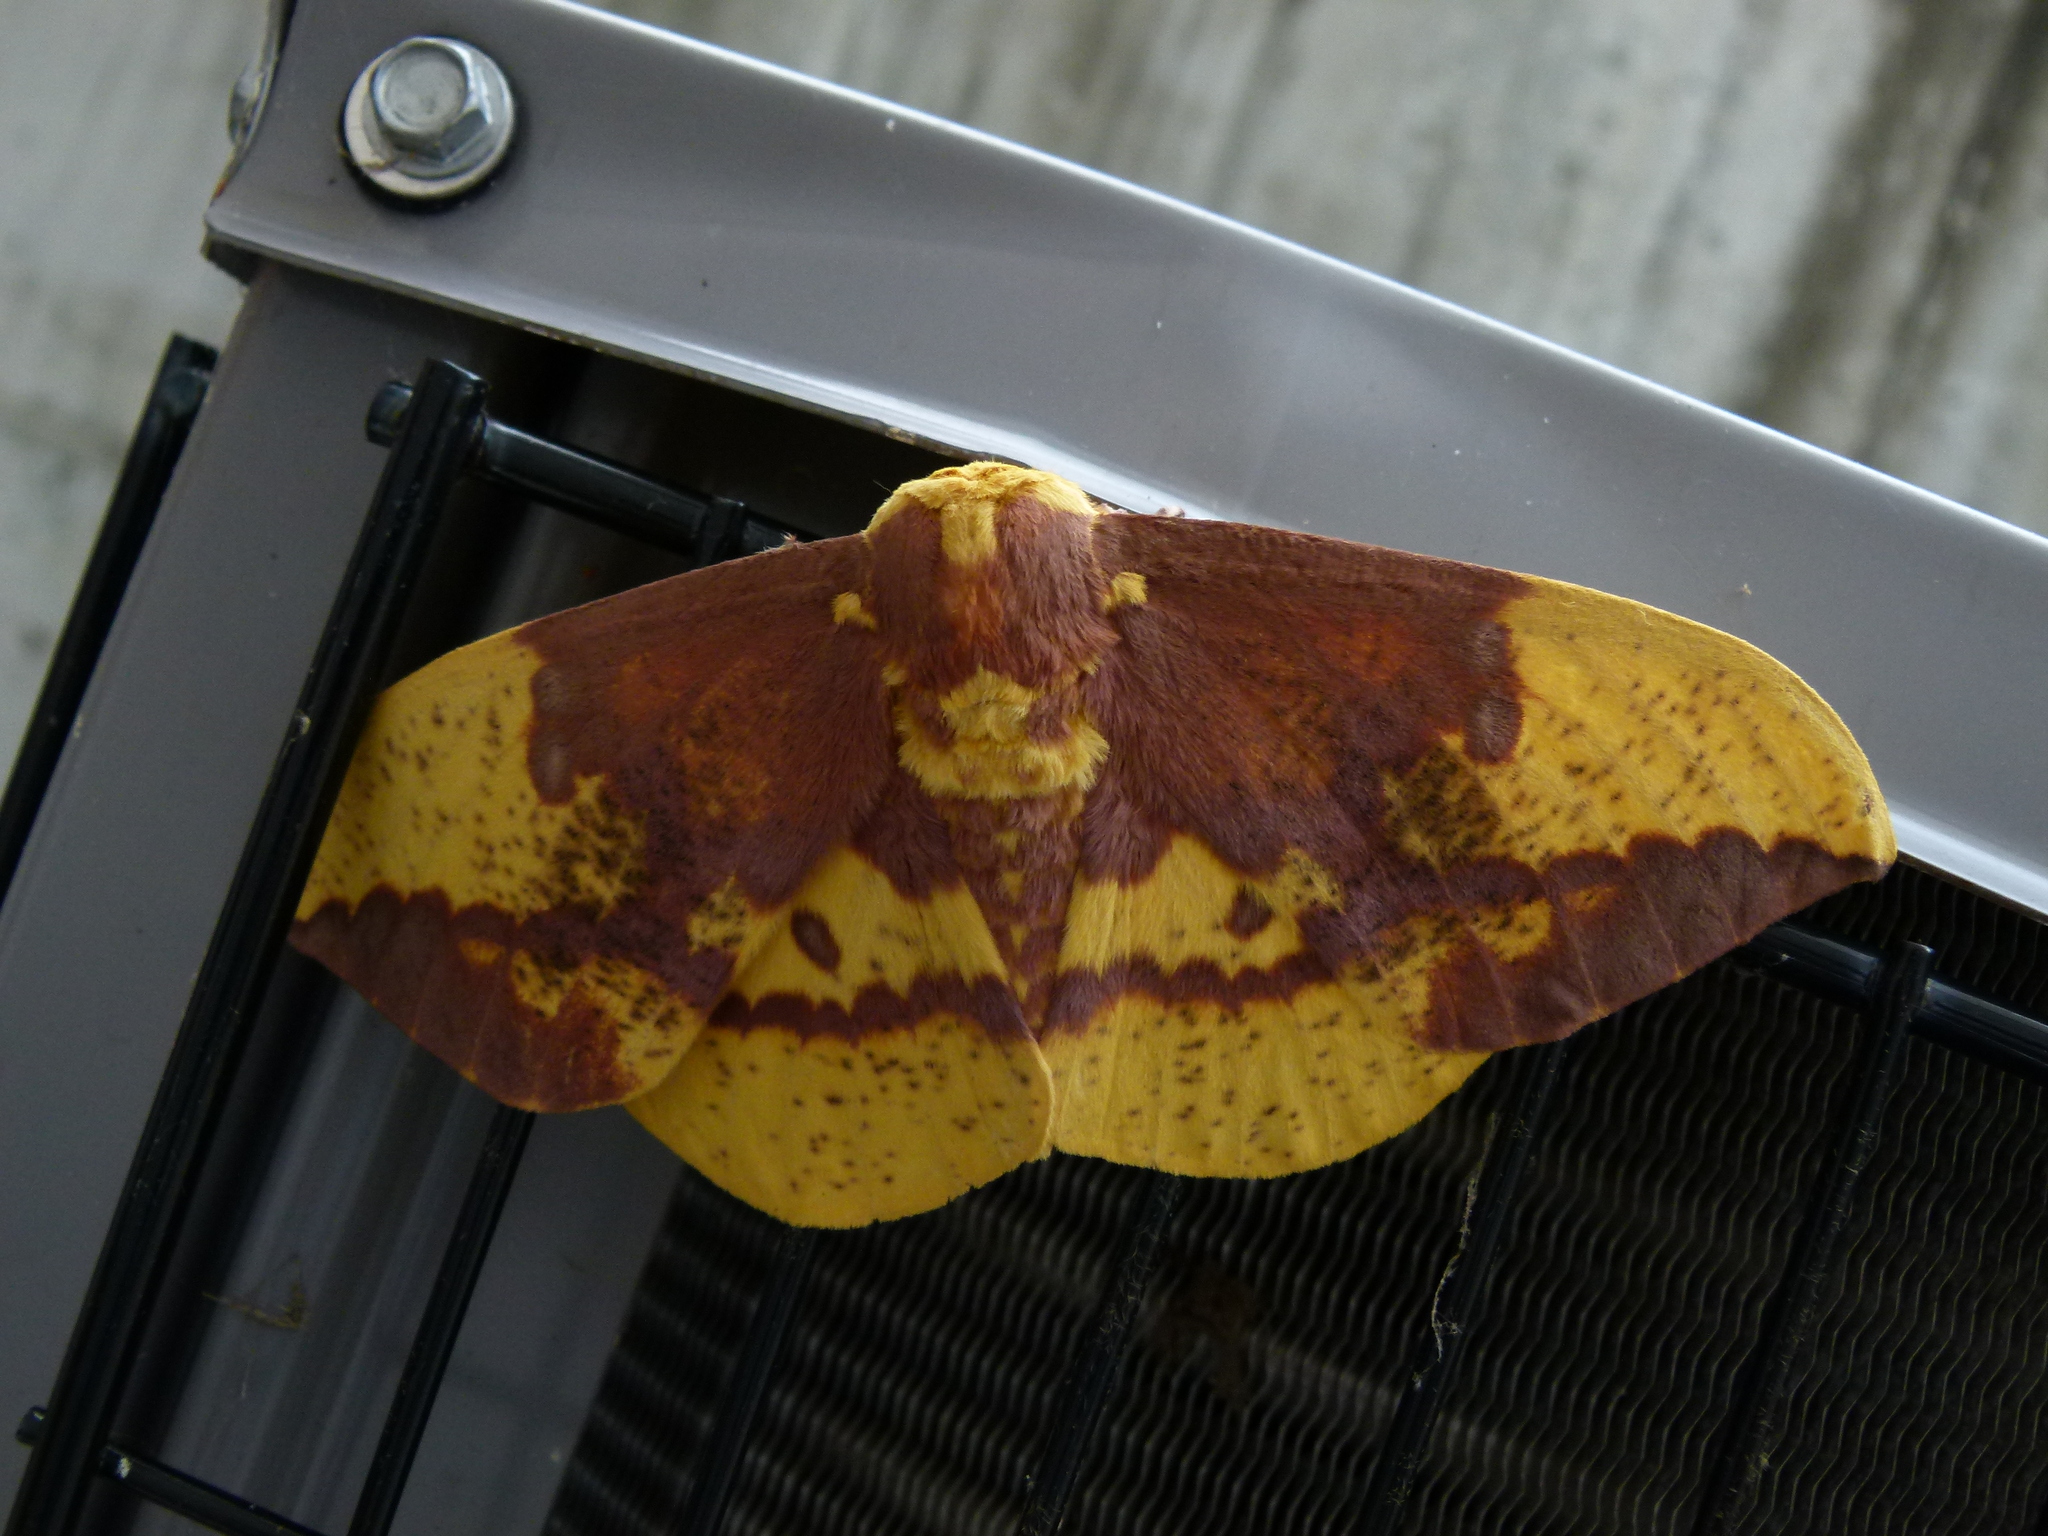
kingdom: Animalia
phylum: Arthropoda
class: Insecta
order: Lepidoptera
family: Saturniidae
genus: Eacles
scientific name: Eacles imperialis
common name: Imperial moth
